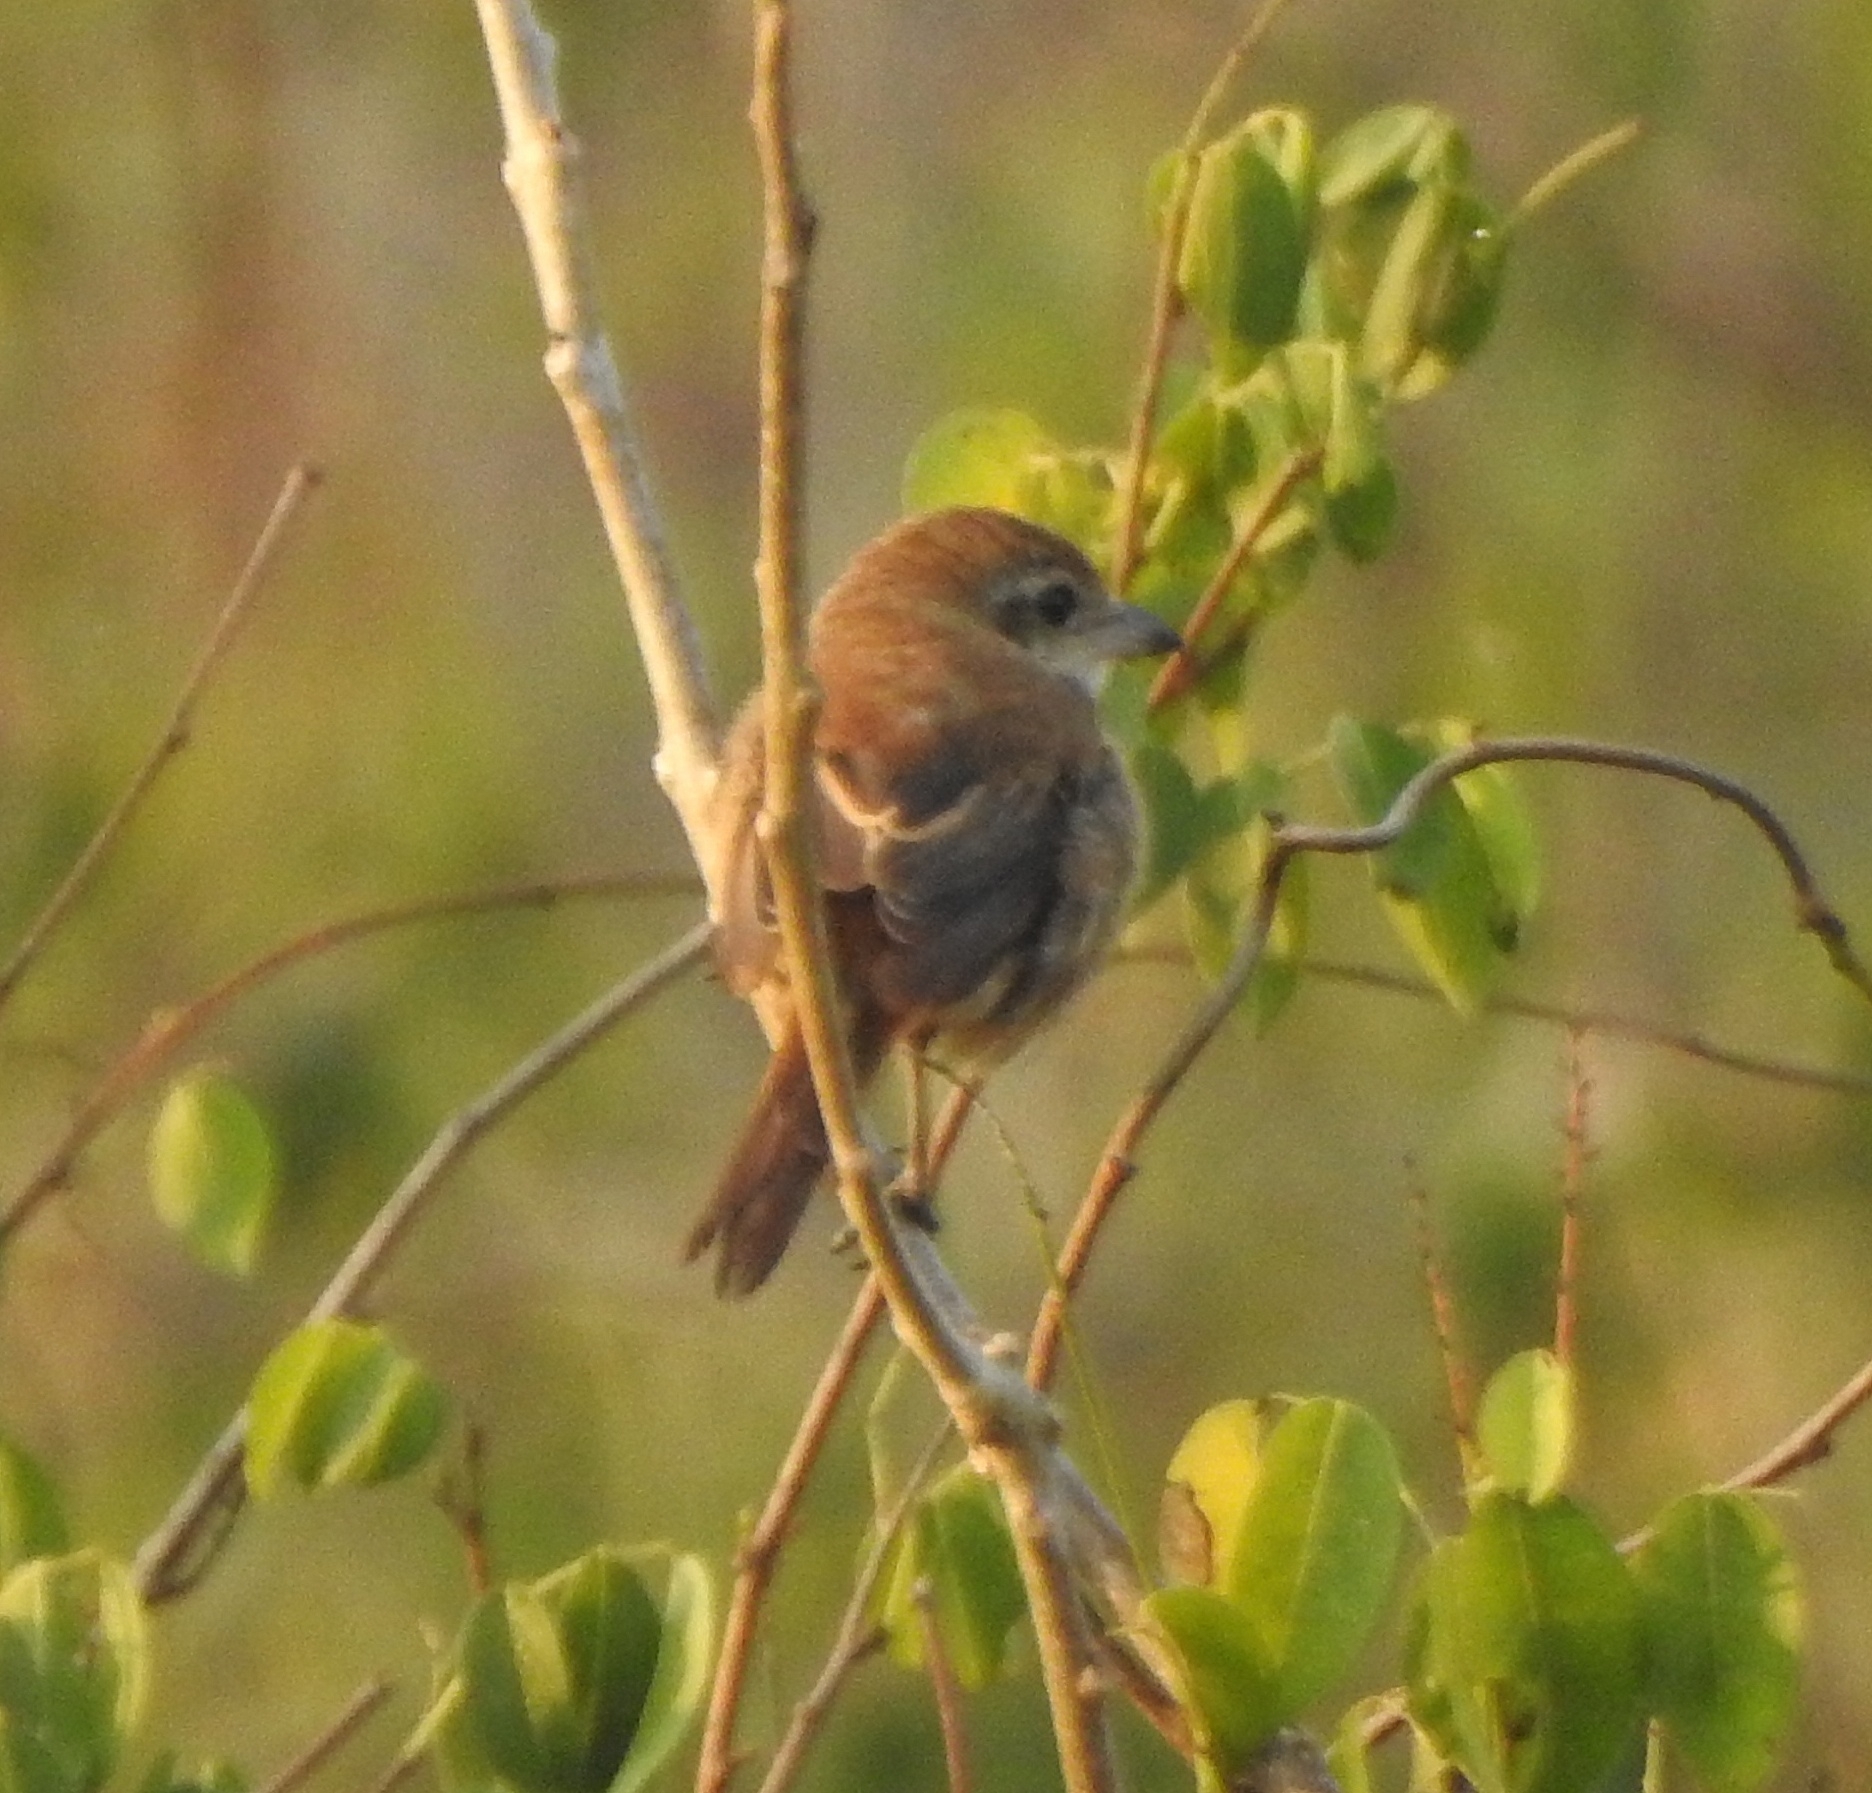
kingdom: Animalia
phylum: Chordata
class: Aves
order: Passeriformes
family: Laniidae
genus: Lanius
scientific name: Lanius cristatus
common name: Brown shrike
